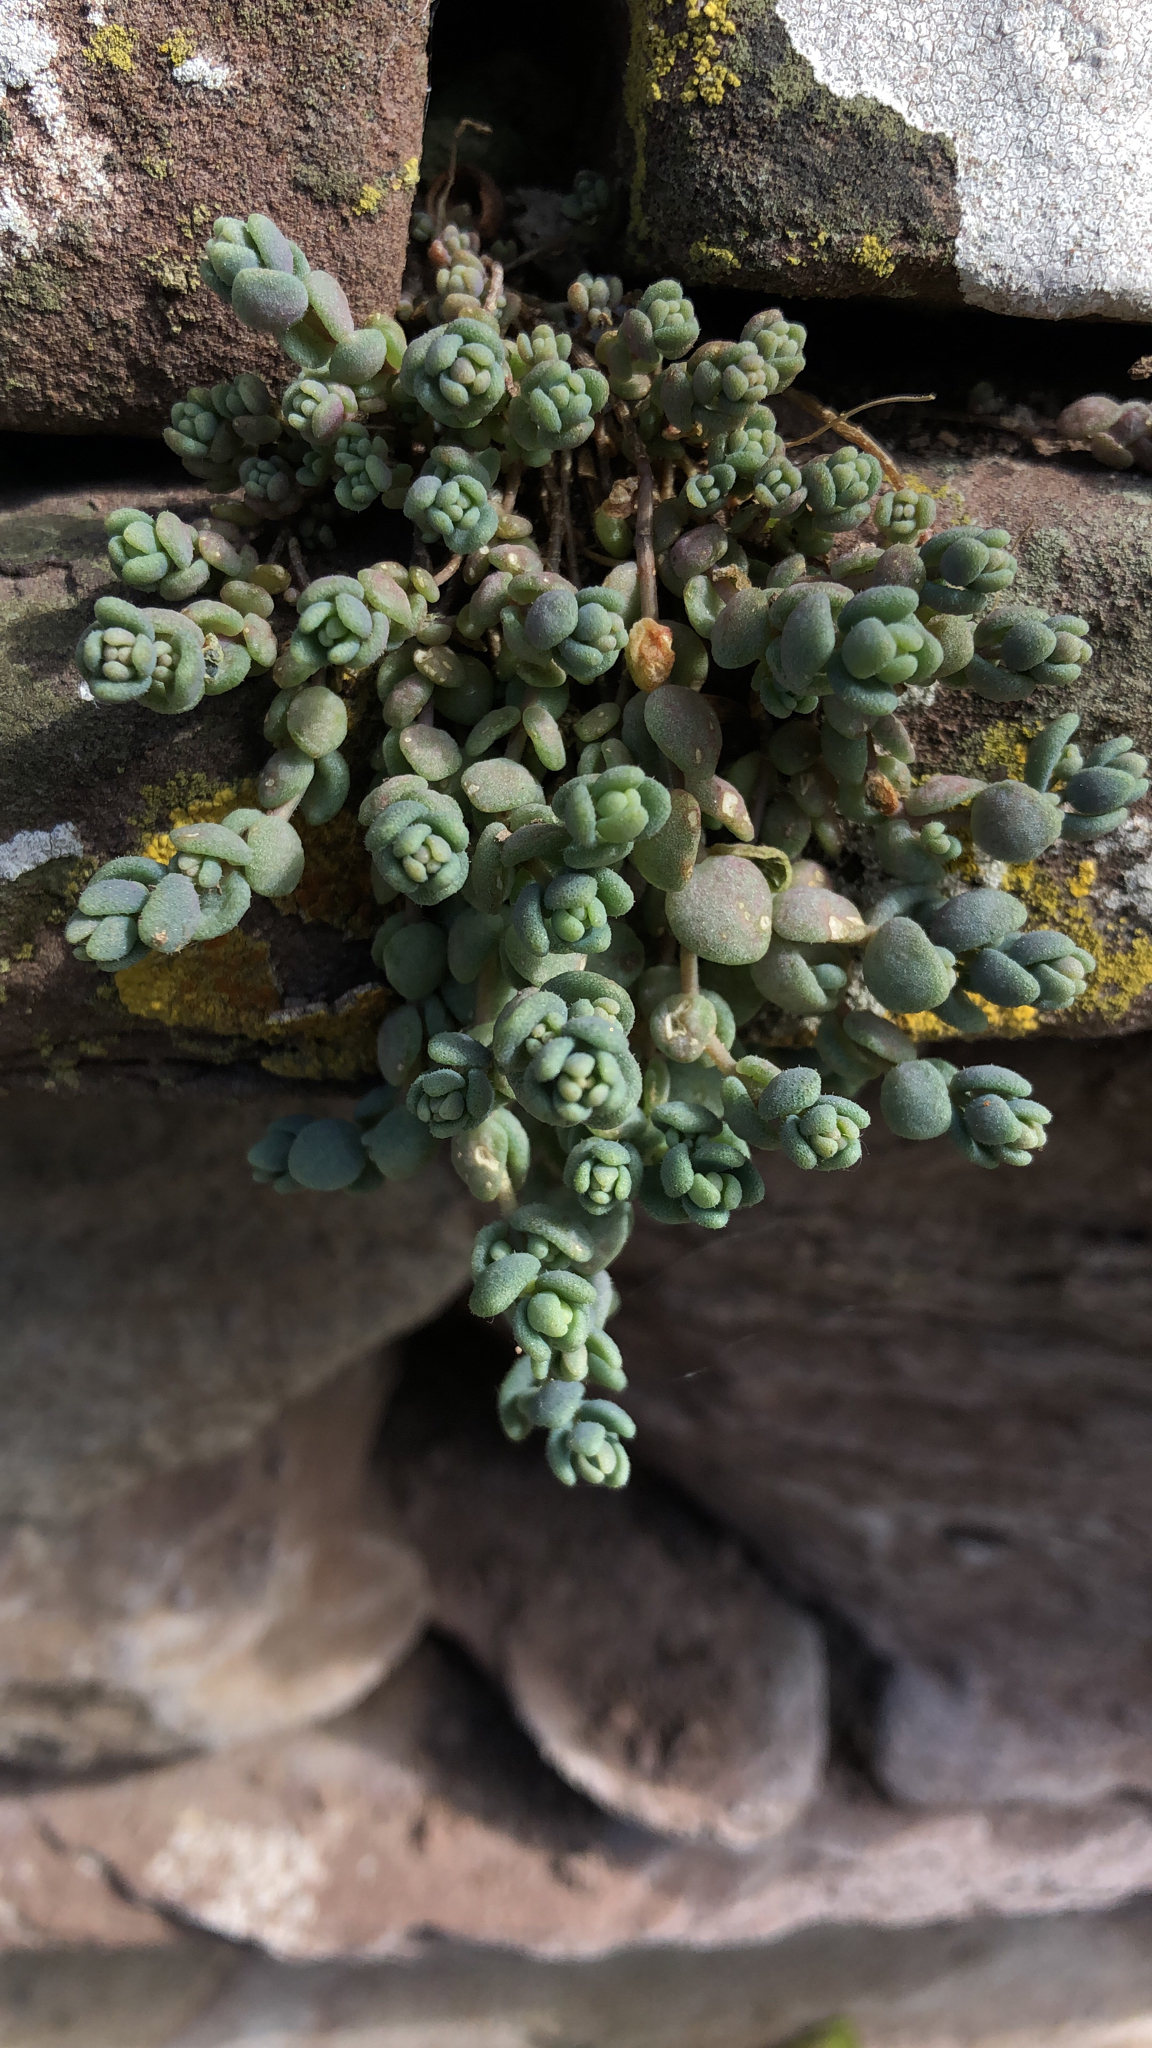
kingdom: Plantae
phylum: Tracheophyta
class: Magnoliopsida
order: Saxifragales
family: Crassulaceae
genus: Sedum
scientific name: Sedum dasyphyllum
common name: Thick-leaf stonecrop
